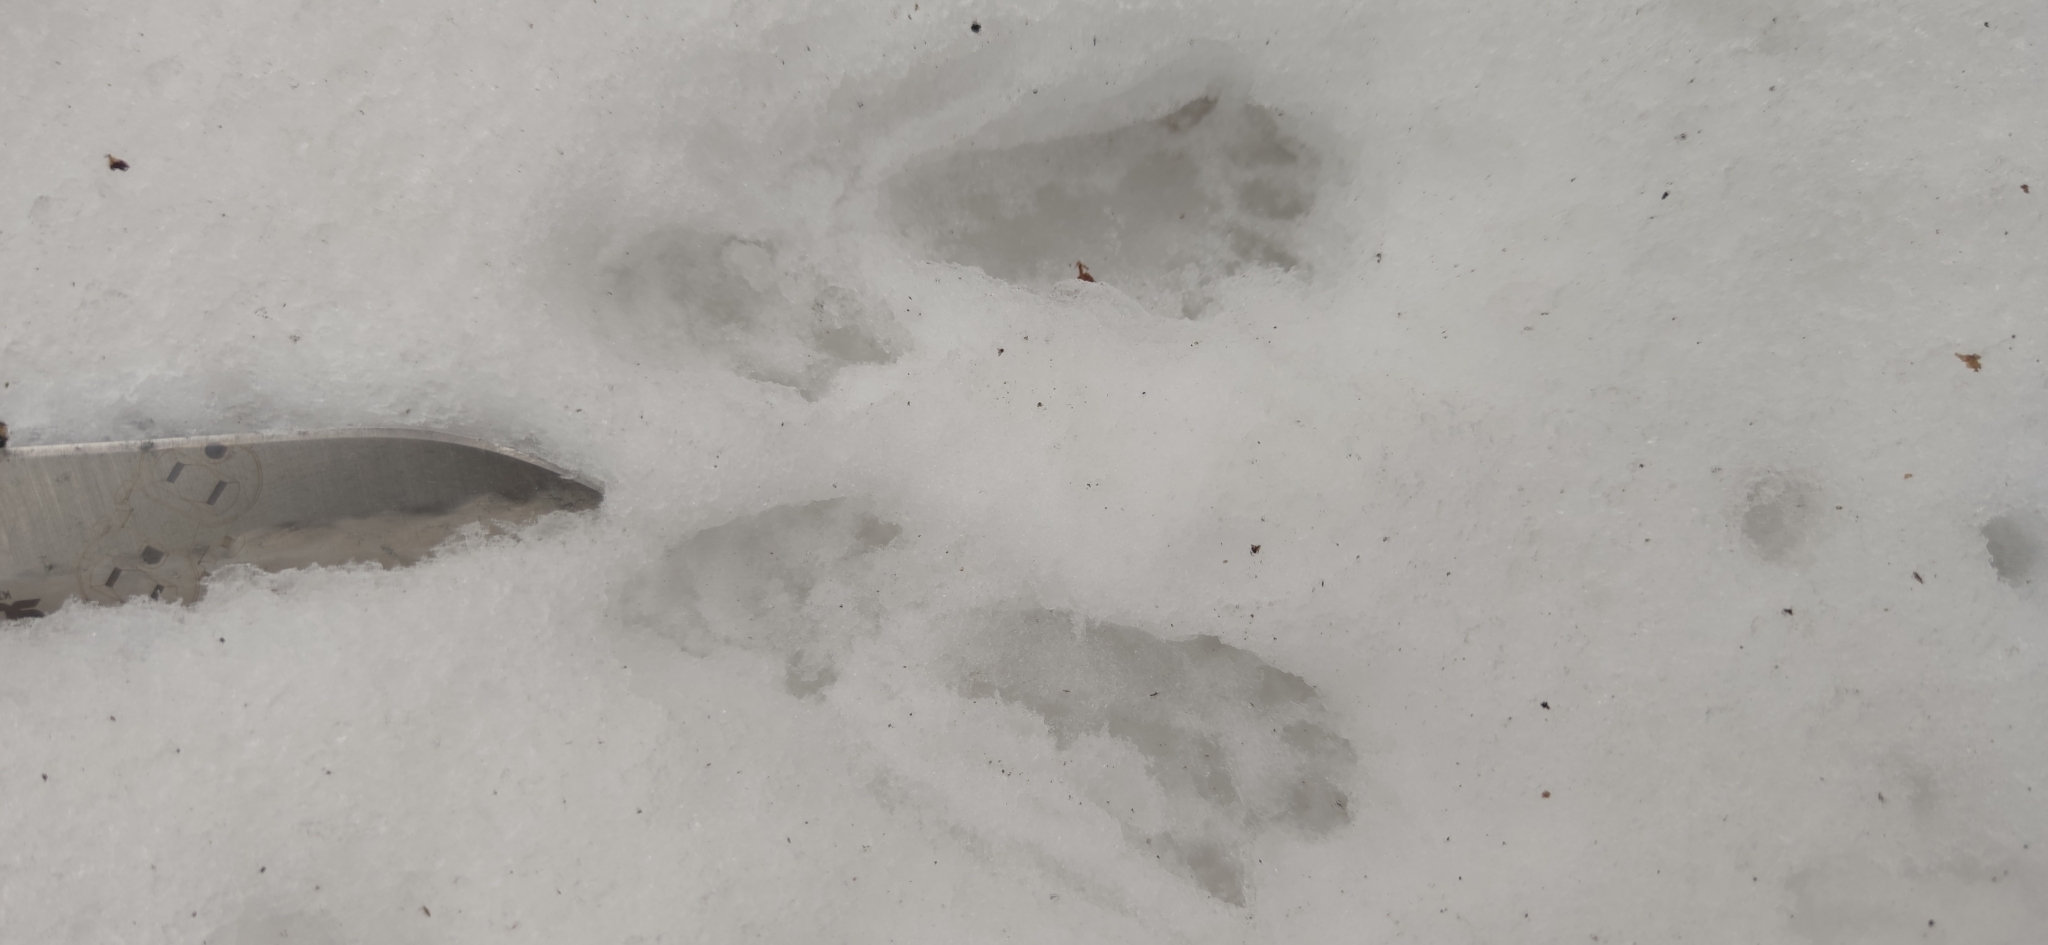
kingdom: Animalia
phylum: Chordata
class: Mammalia
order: Rodentia
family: Sciuridae
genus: Sciurus
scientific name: Sciurus vulgaris
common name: Eurasian red squirrel
